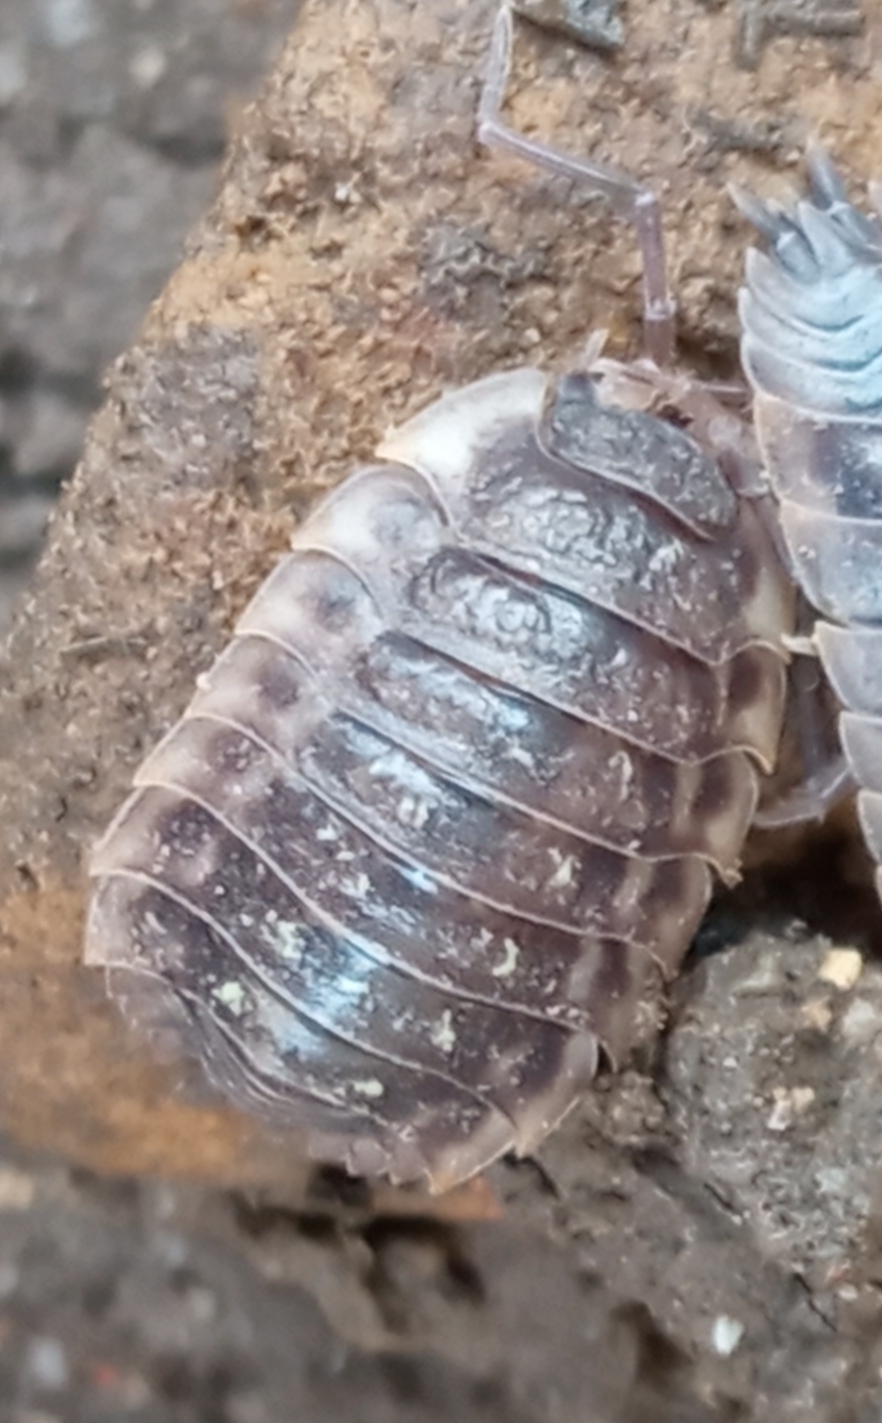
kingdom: Animalia
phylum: Arthropoda
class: Malacostraca
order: Isopoda
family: Oniscidae
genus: Oniscus
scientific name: Oniscus asellus
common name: Common shiny woodlouse
